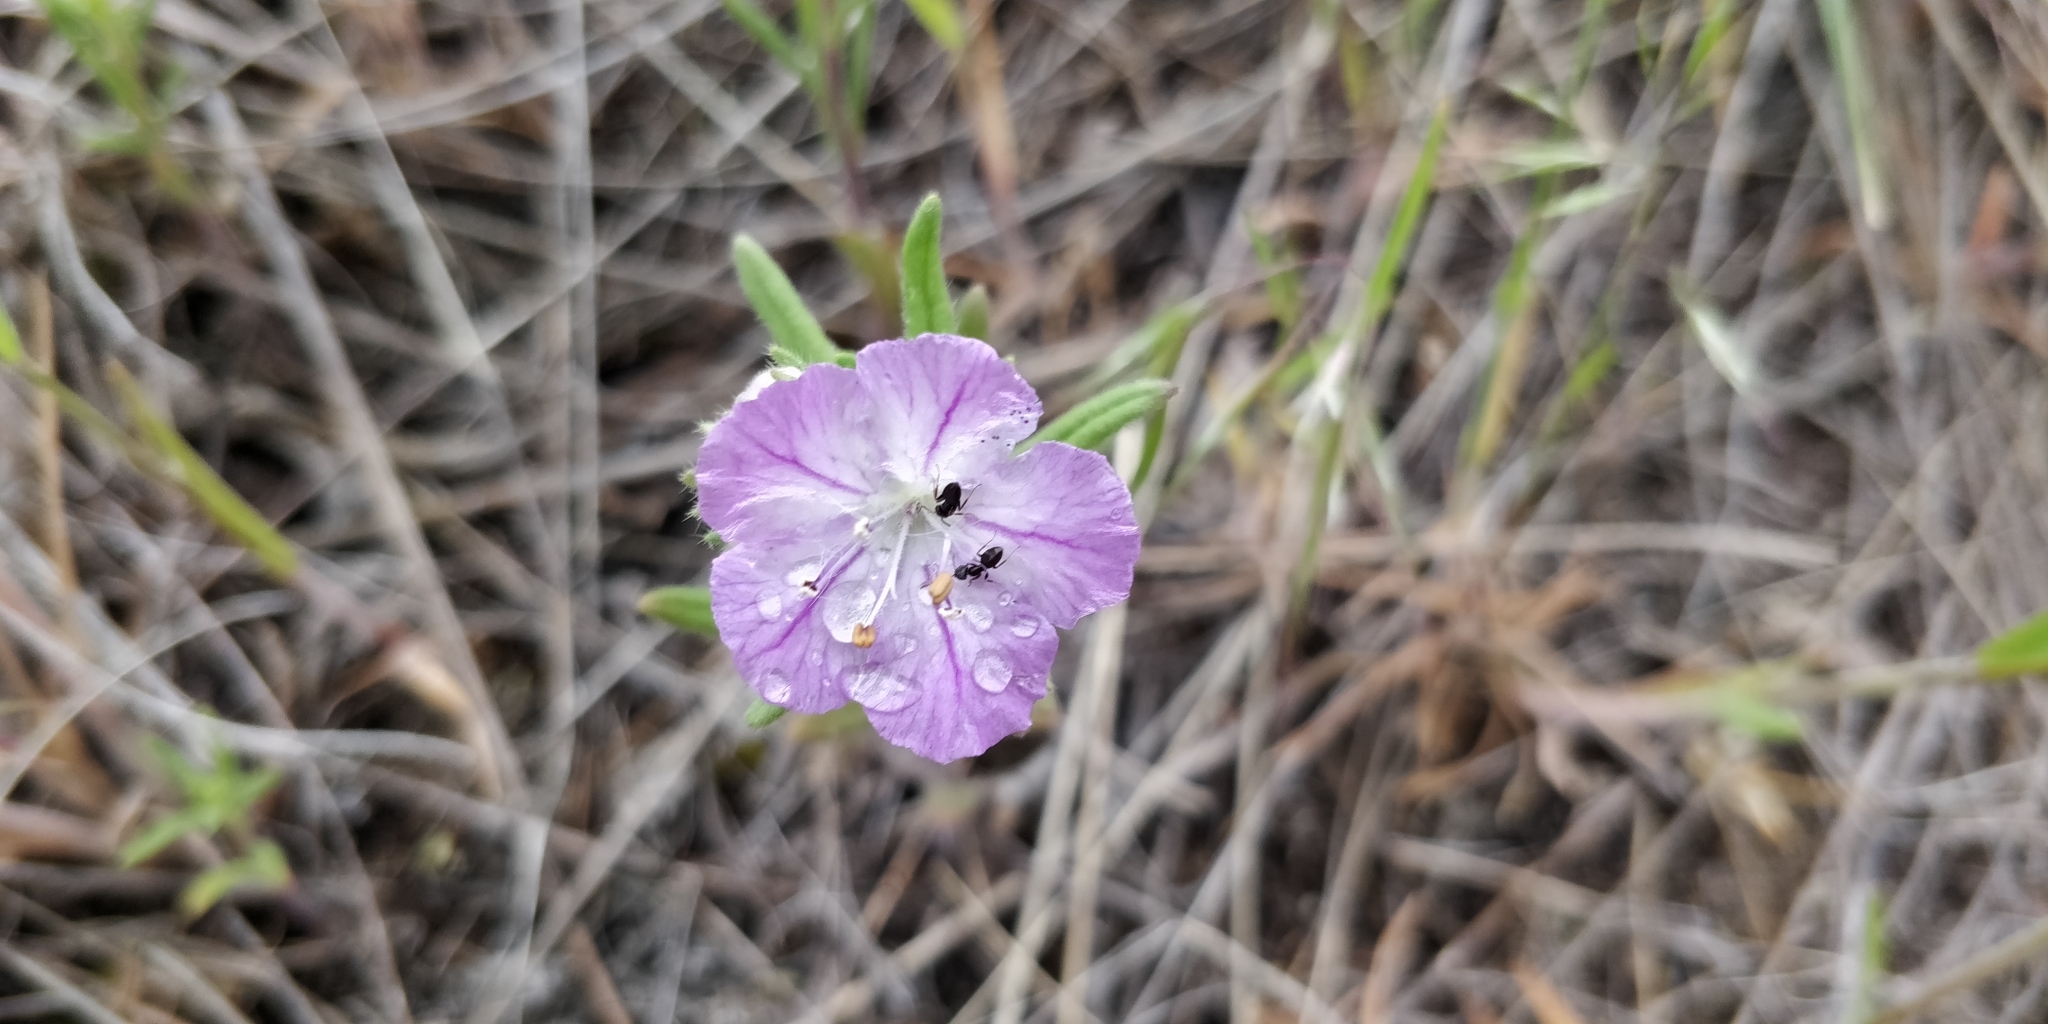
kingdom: Plantae
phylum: Tracheophyta
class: Magnoliopsida
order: Boraginales
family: Hydrophyllaceae
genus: Phacelia
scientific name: Phacelia linearis
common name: Linear-leaved phacelia
